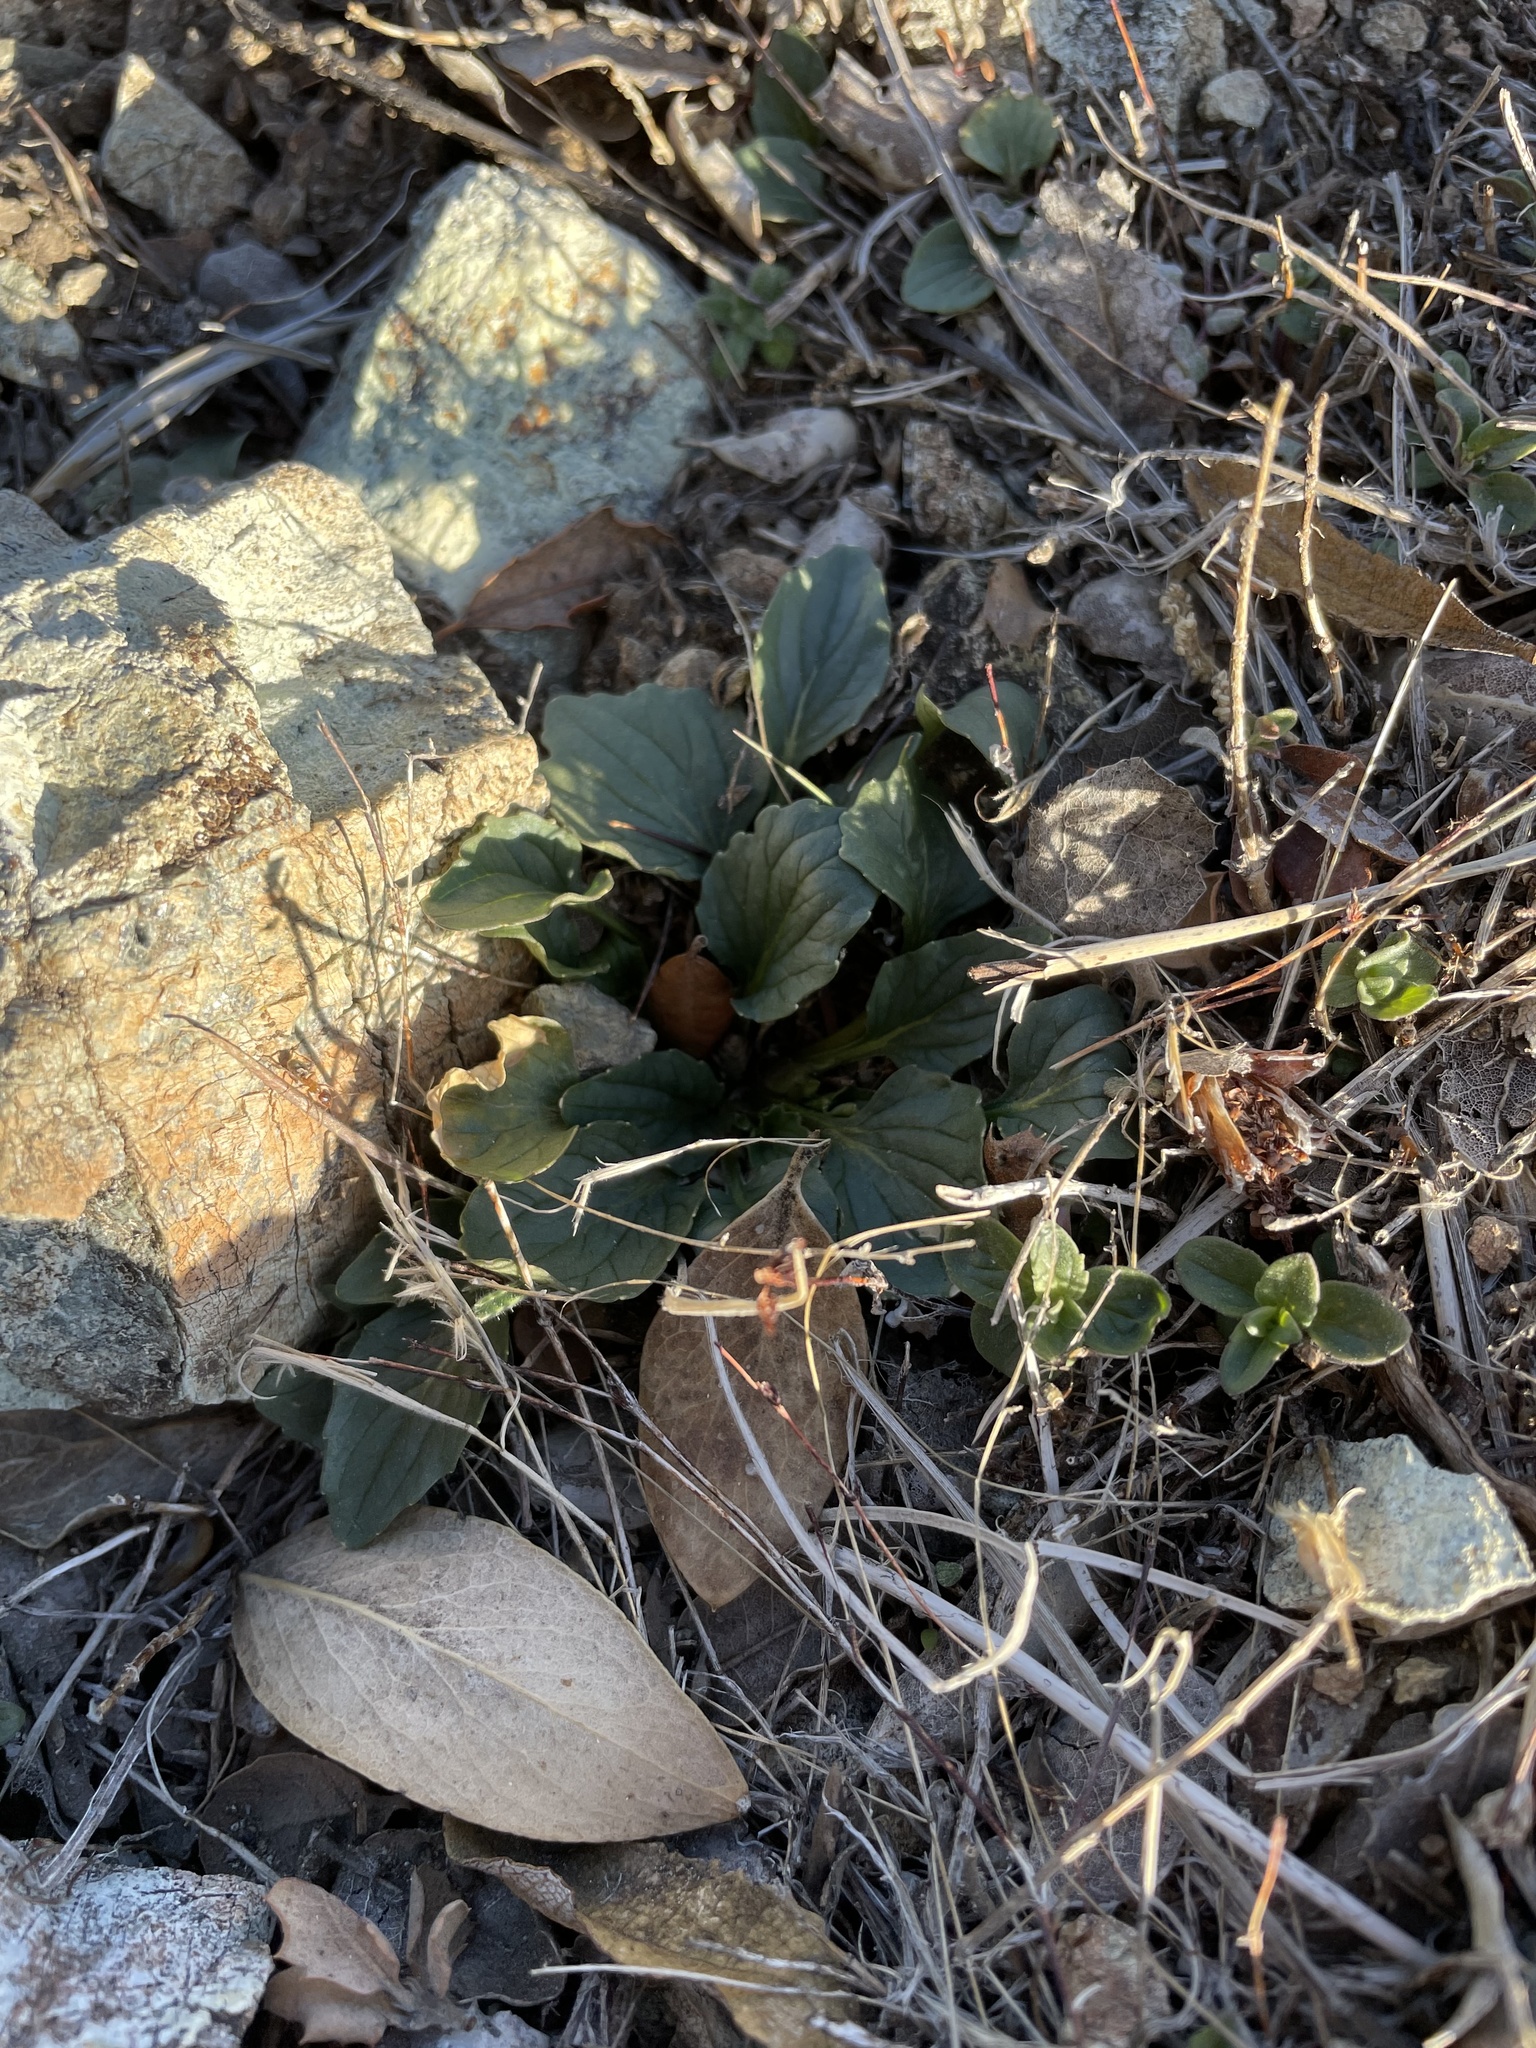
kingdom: Plantae
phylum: Tracheophyta
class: Magnoliopsida
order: Malpighiales
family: Violaceae
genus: Viola
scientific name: Viola purpurea
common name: Pine violet
